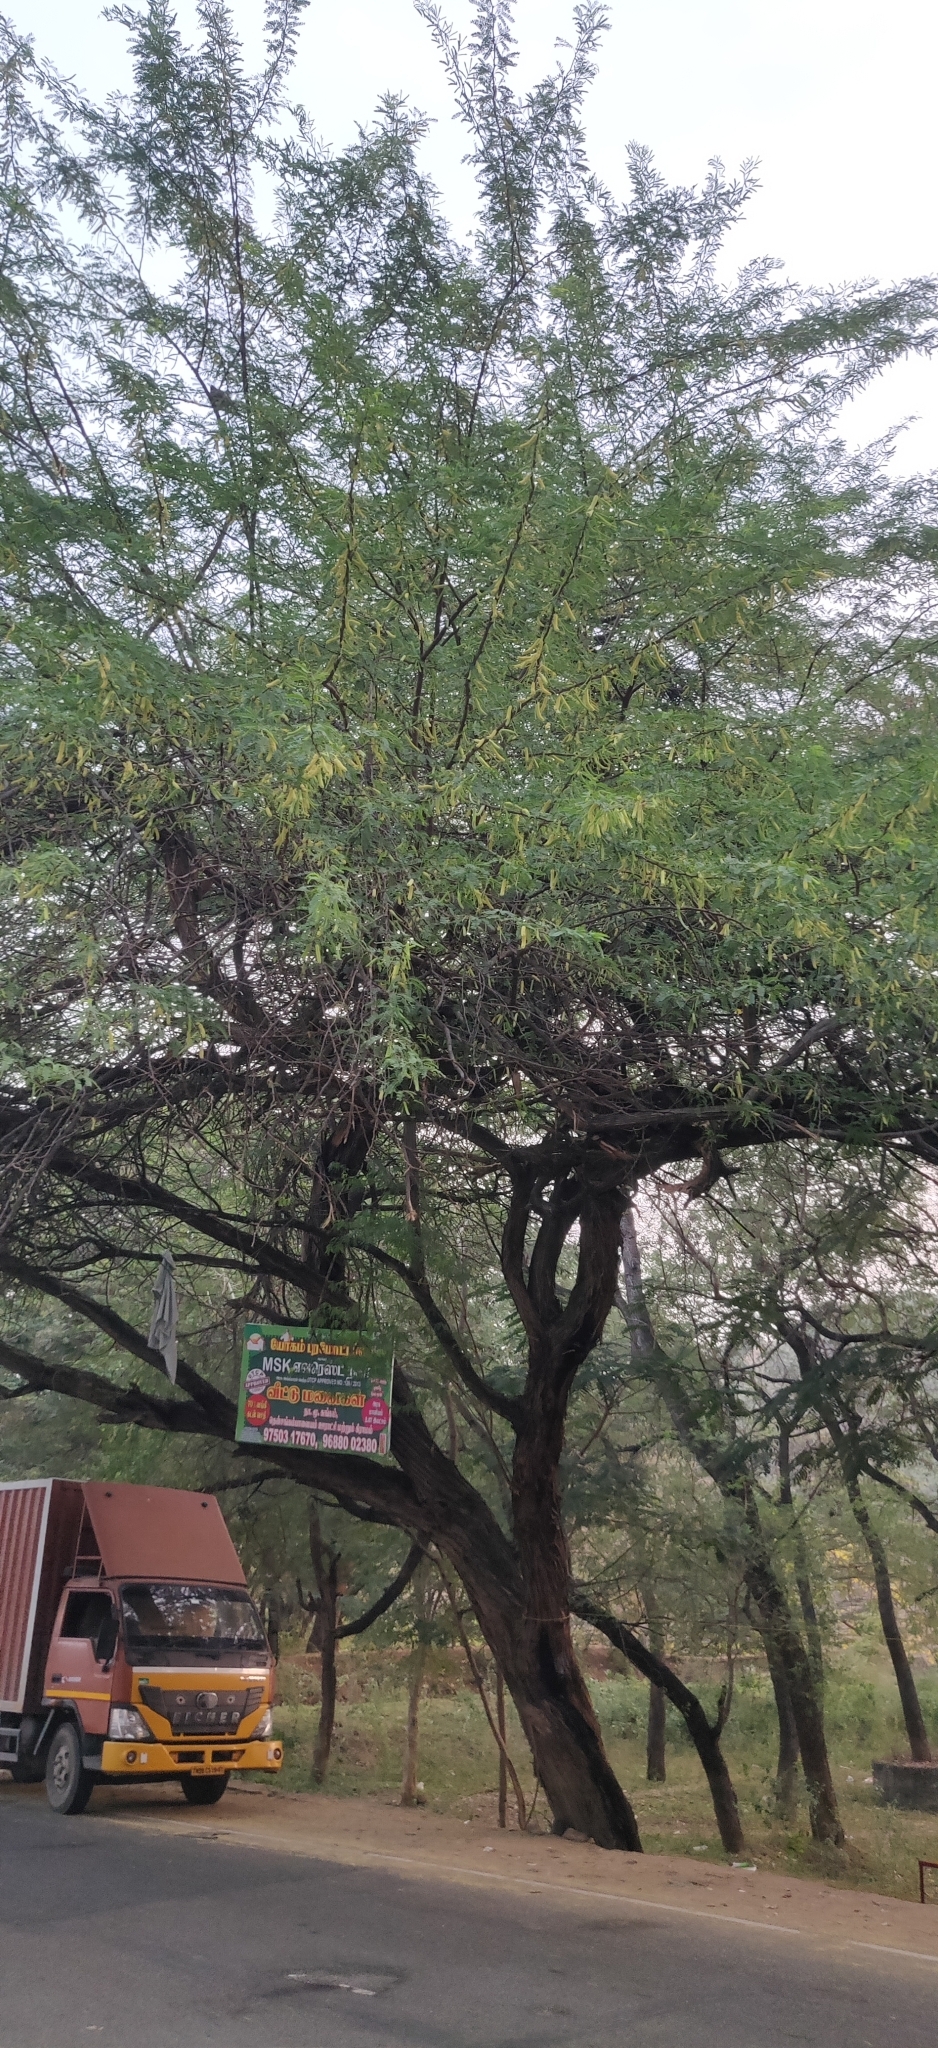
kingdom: Plantae
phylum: Tracheophyta
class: Magnoliopsida
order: Fabales
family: Fabaceae
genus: Prosopis
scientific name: Prosopis juliflora
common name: Mesquite
